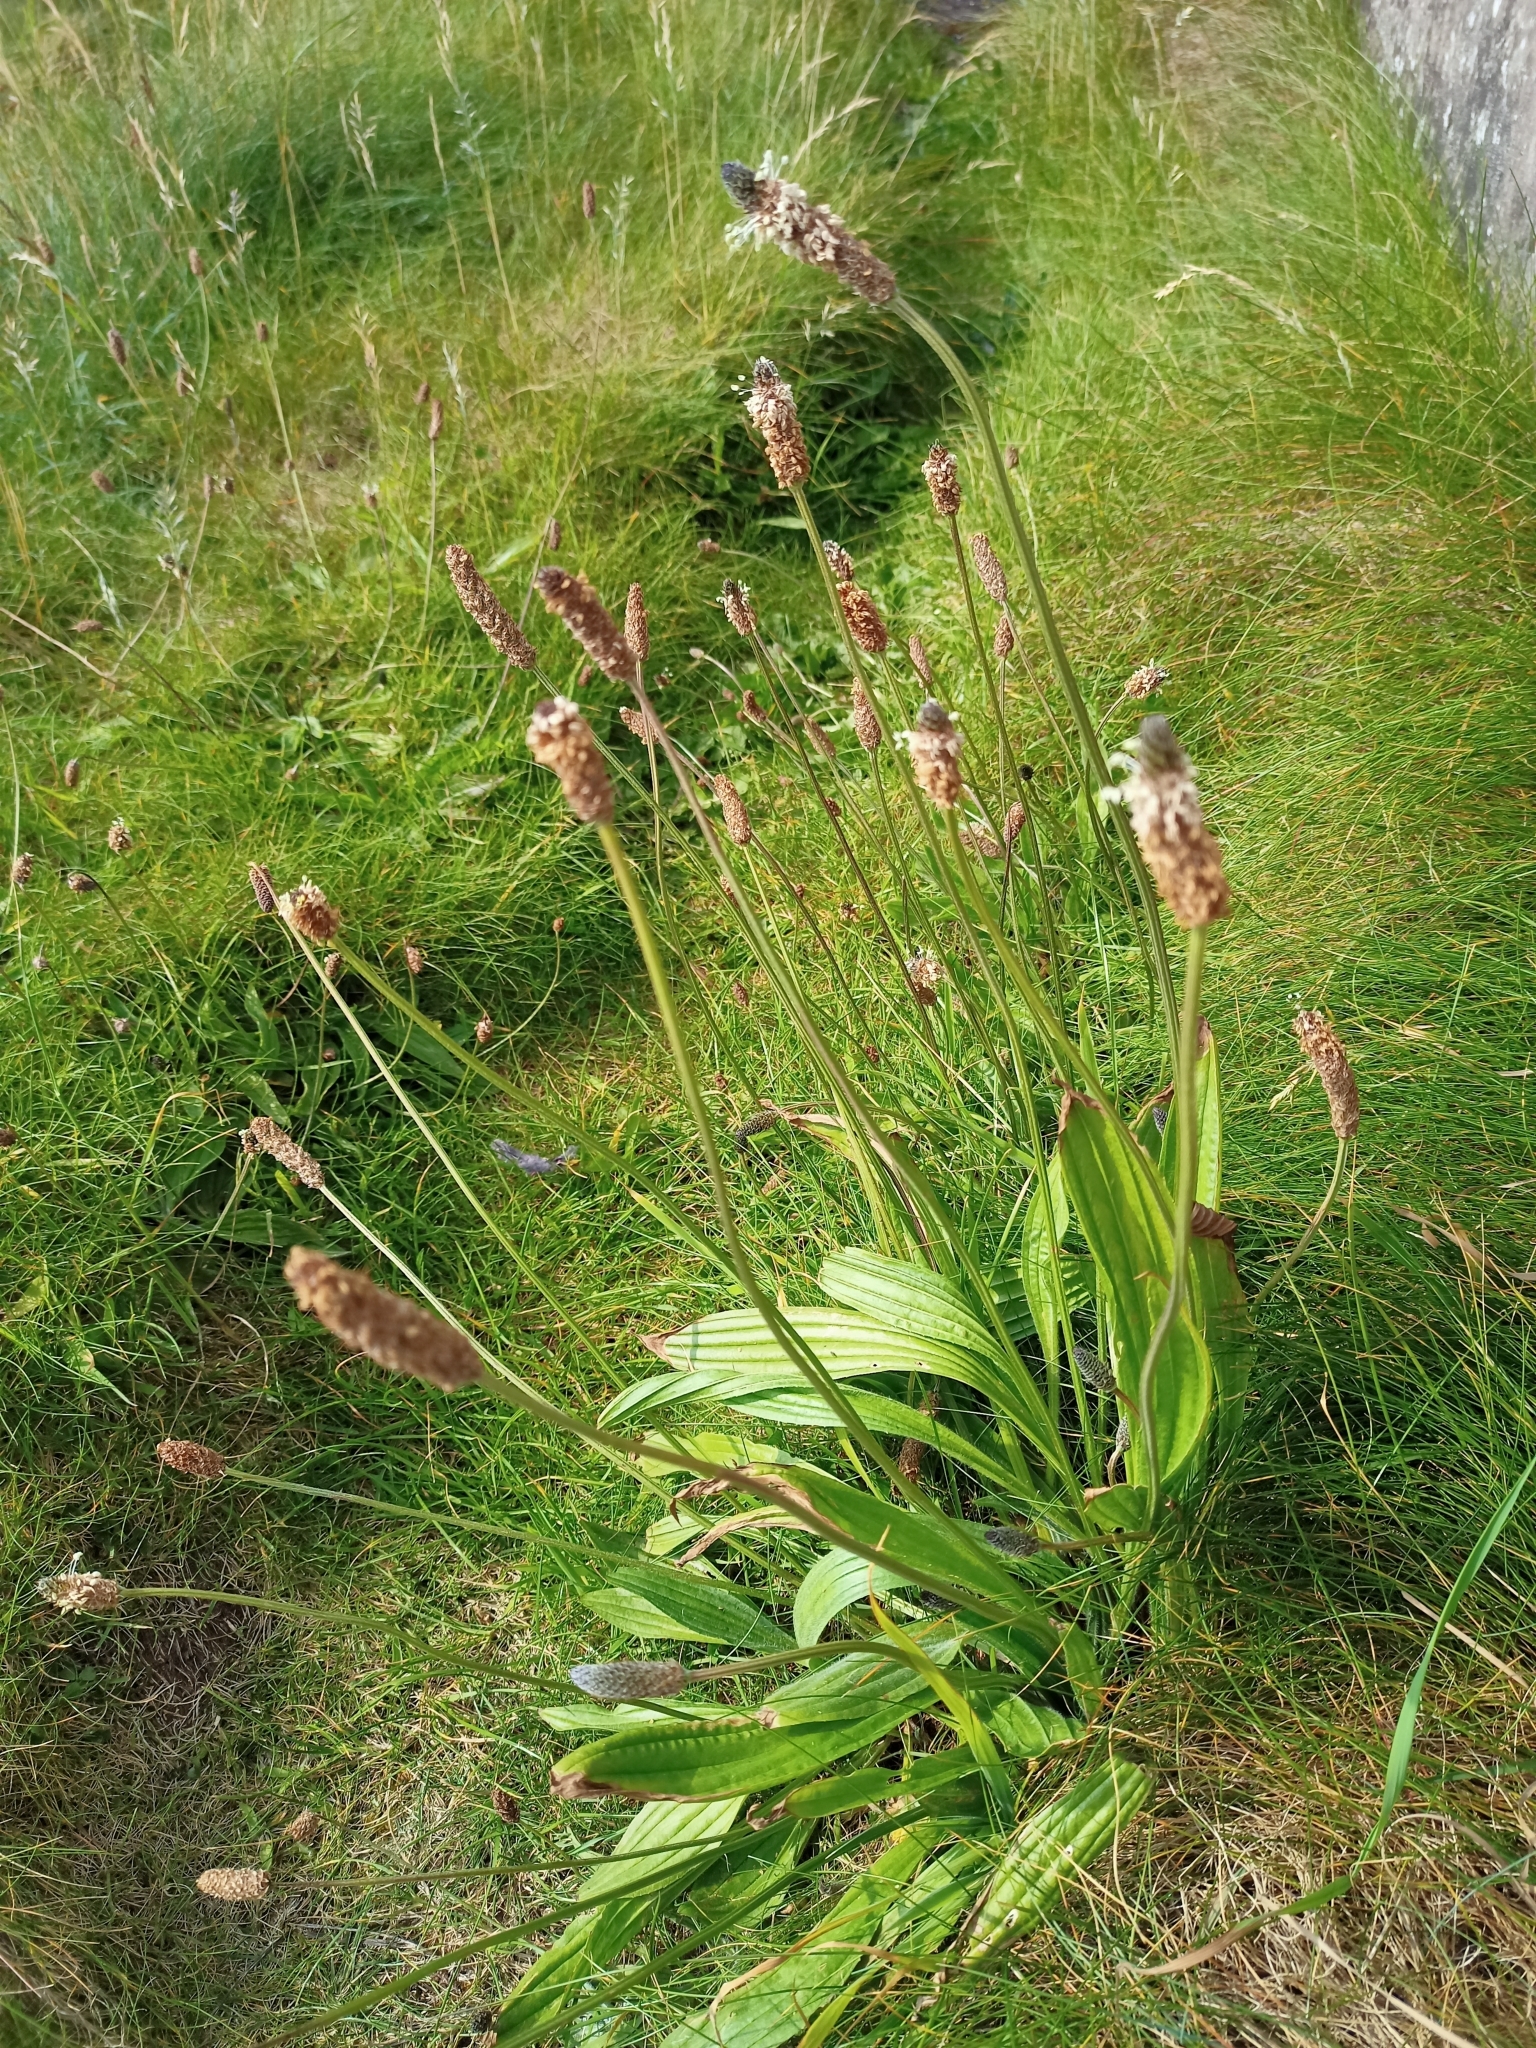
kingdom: Plantae
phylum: Tracheophyta
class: Magnoliopsida
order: Lamiales
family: Plantaginaceae
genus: Plantago
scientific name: Plantago lanceolata
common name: Ribwort plantain
